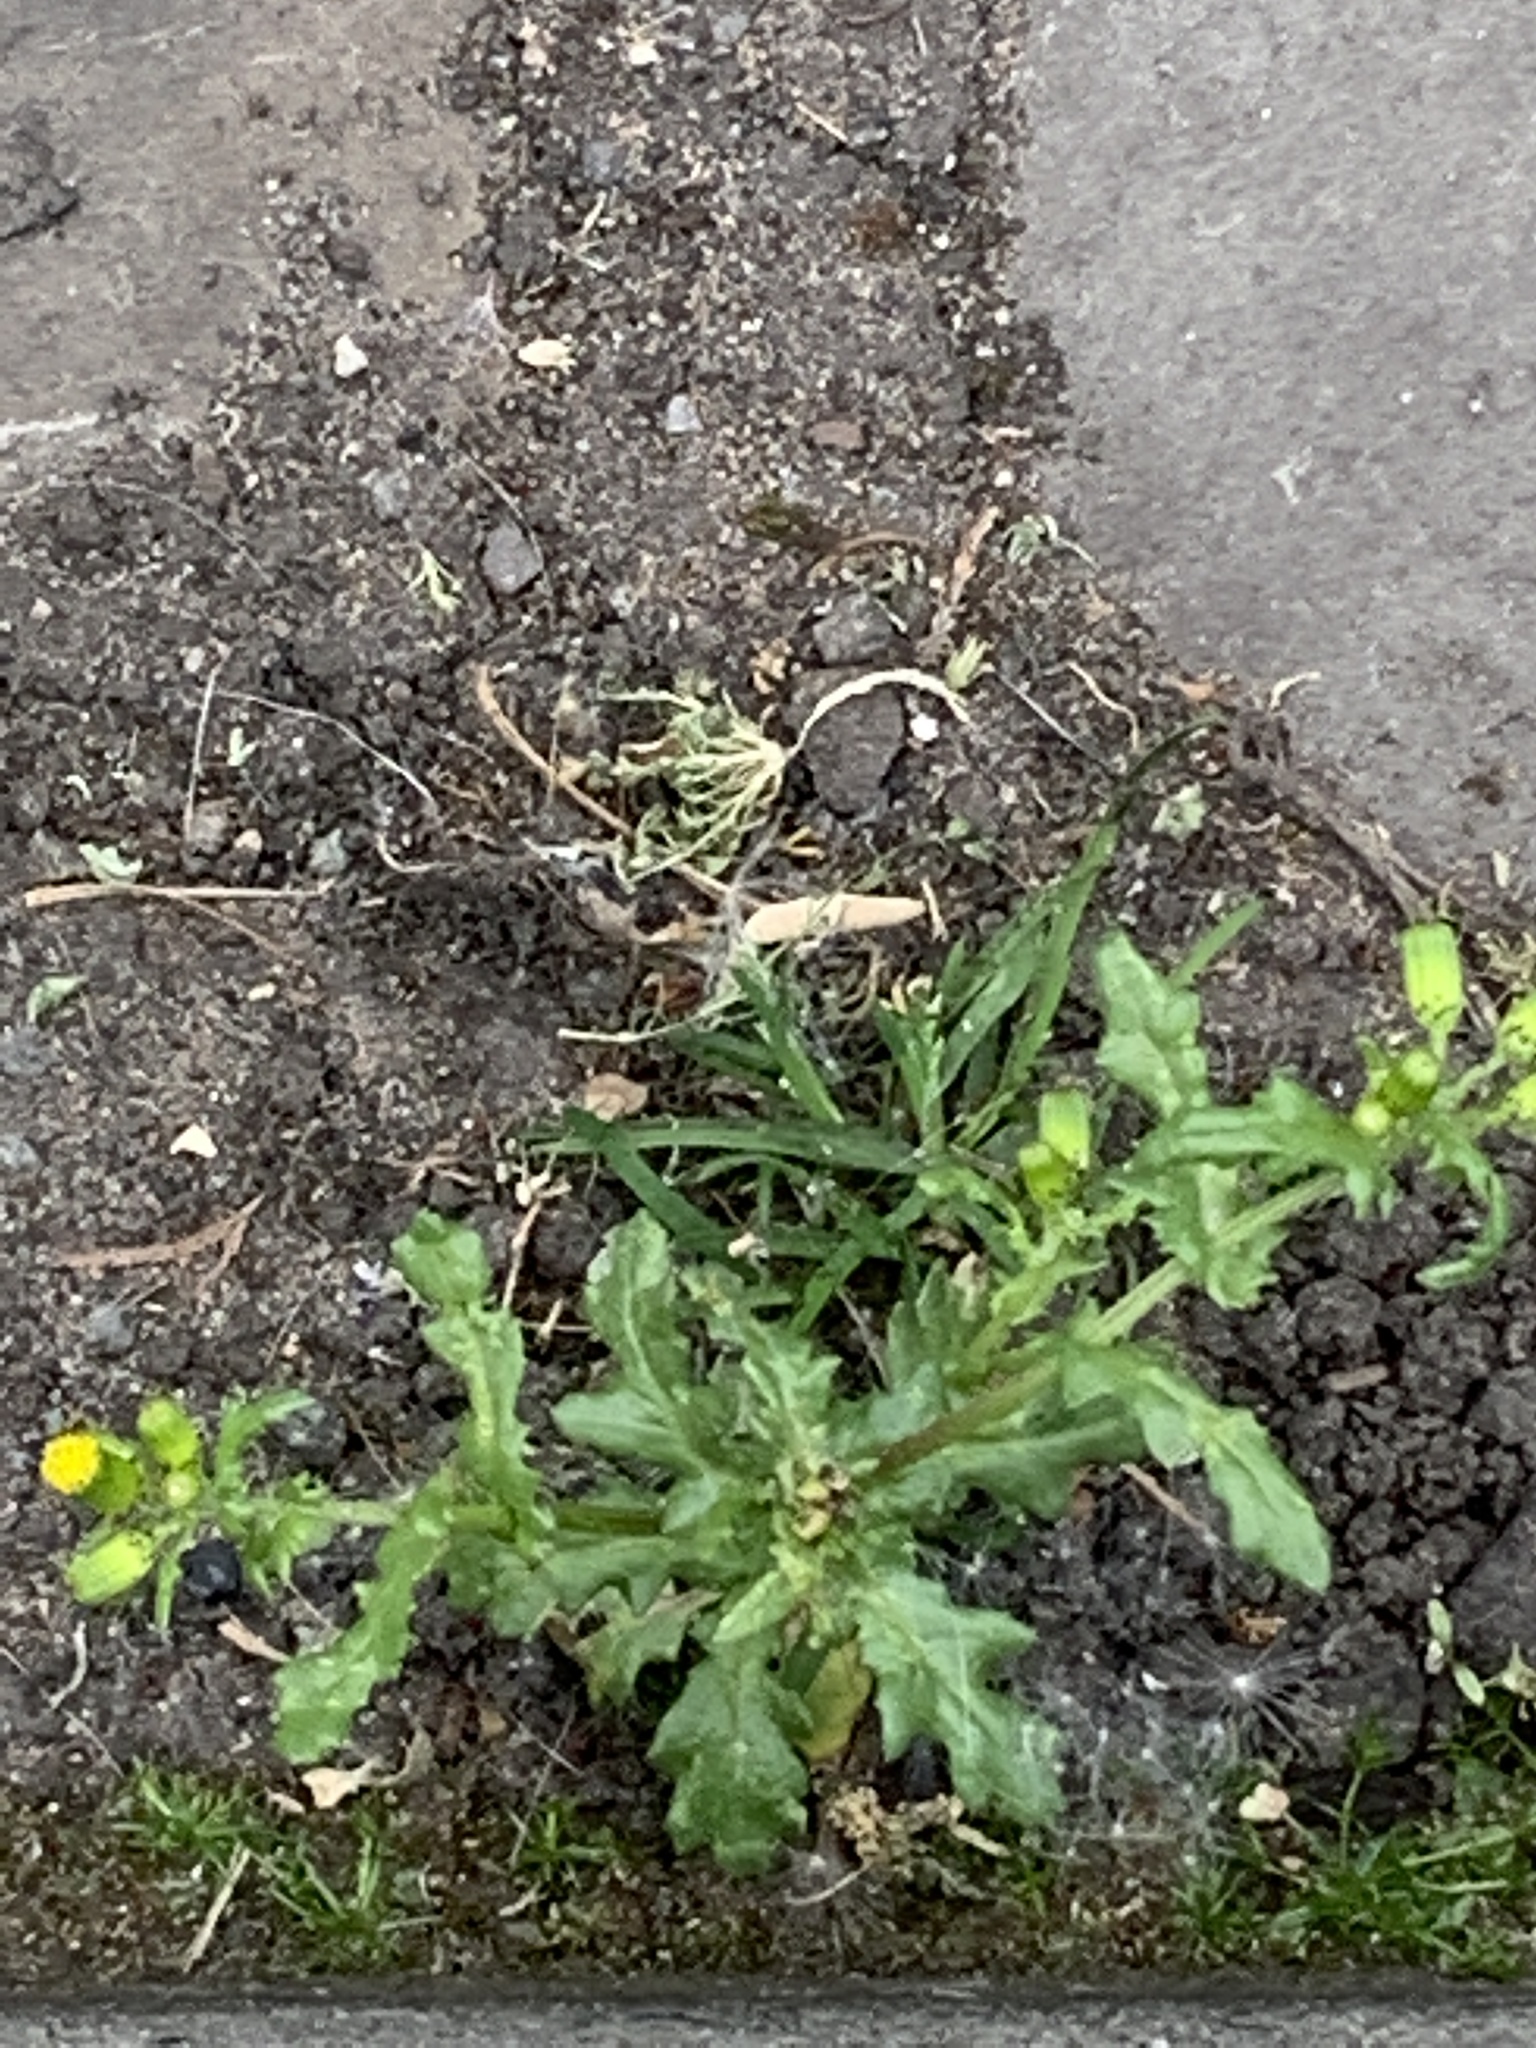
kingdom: Plantae
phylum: Tracheophyta
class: Magnoliopsida
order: Asterales
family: Asteraceae
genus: Senecio
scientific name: Senecio vulgaris
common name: Old-man-in-the-spring
